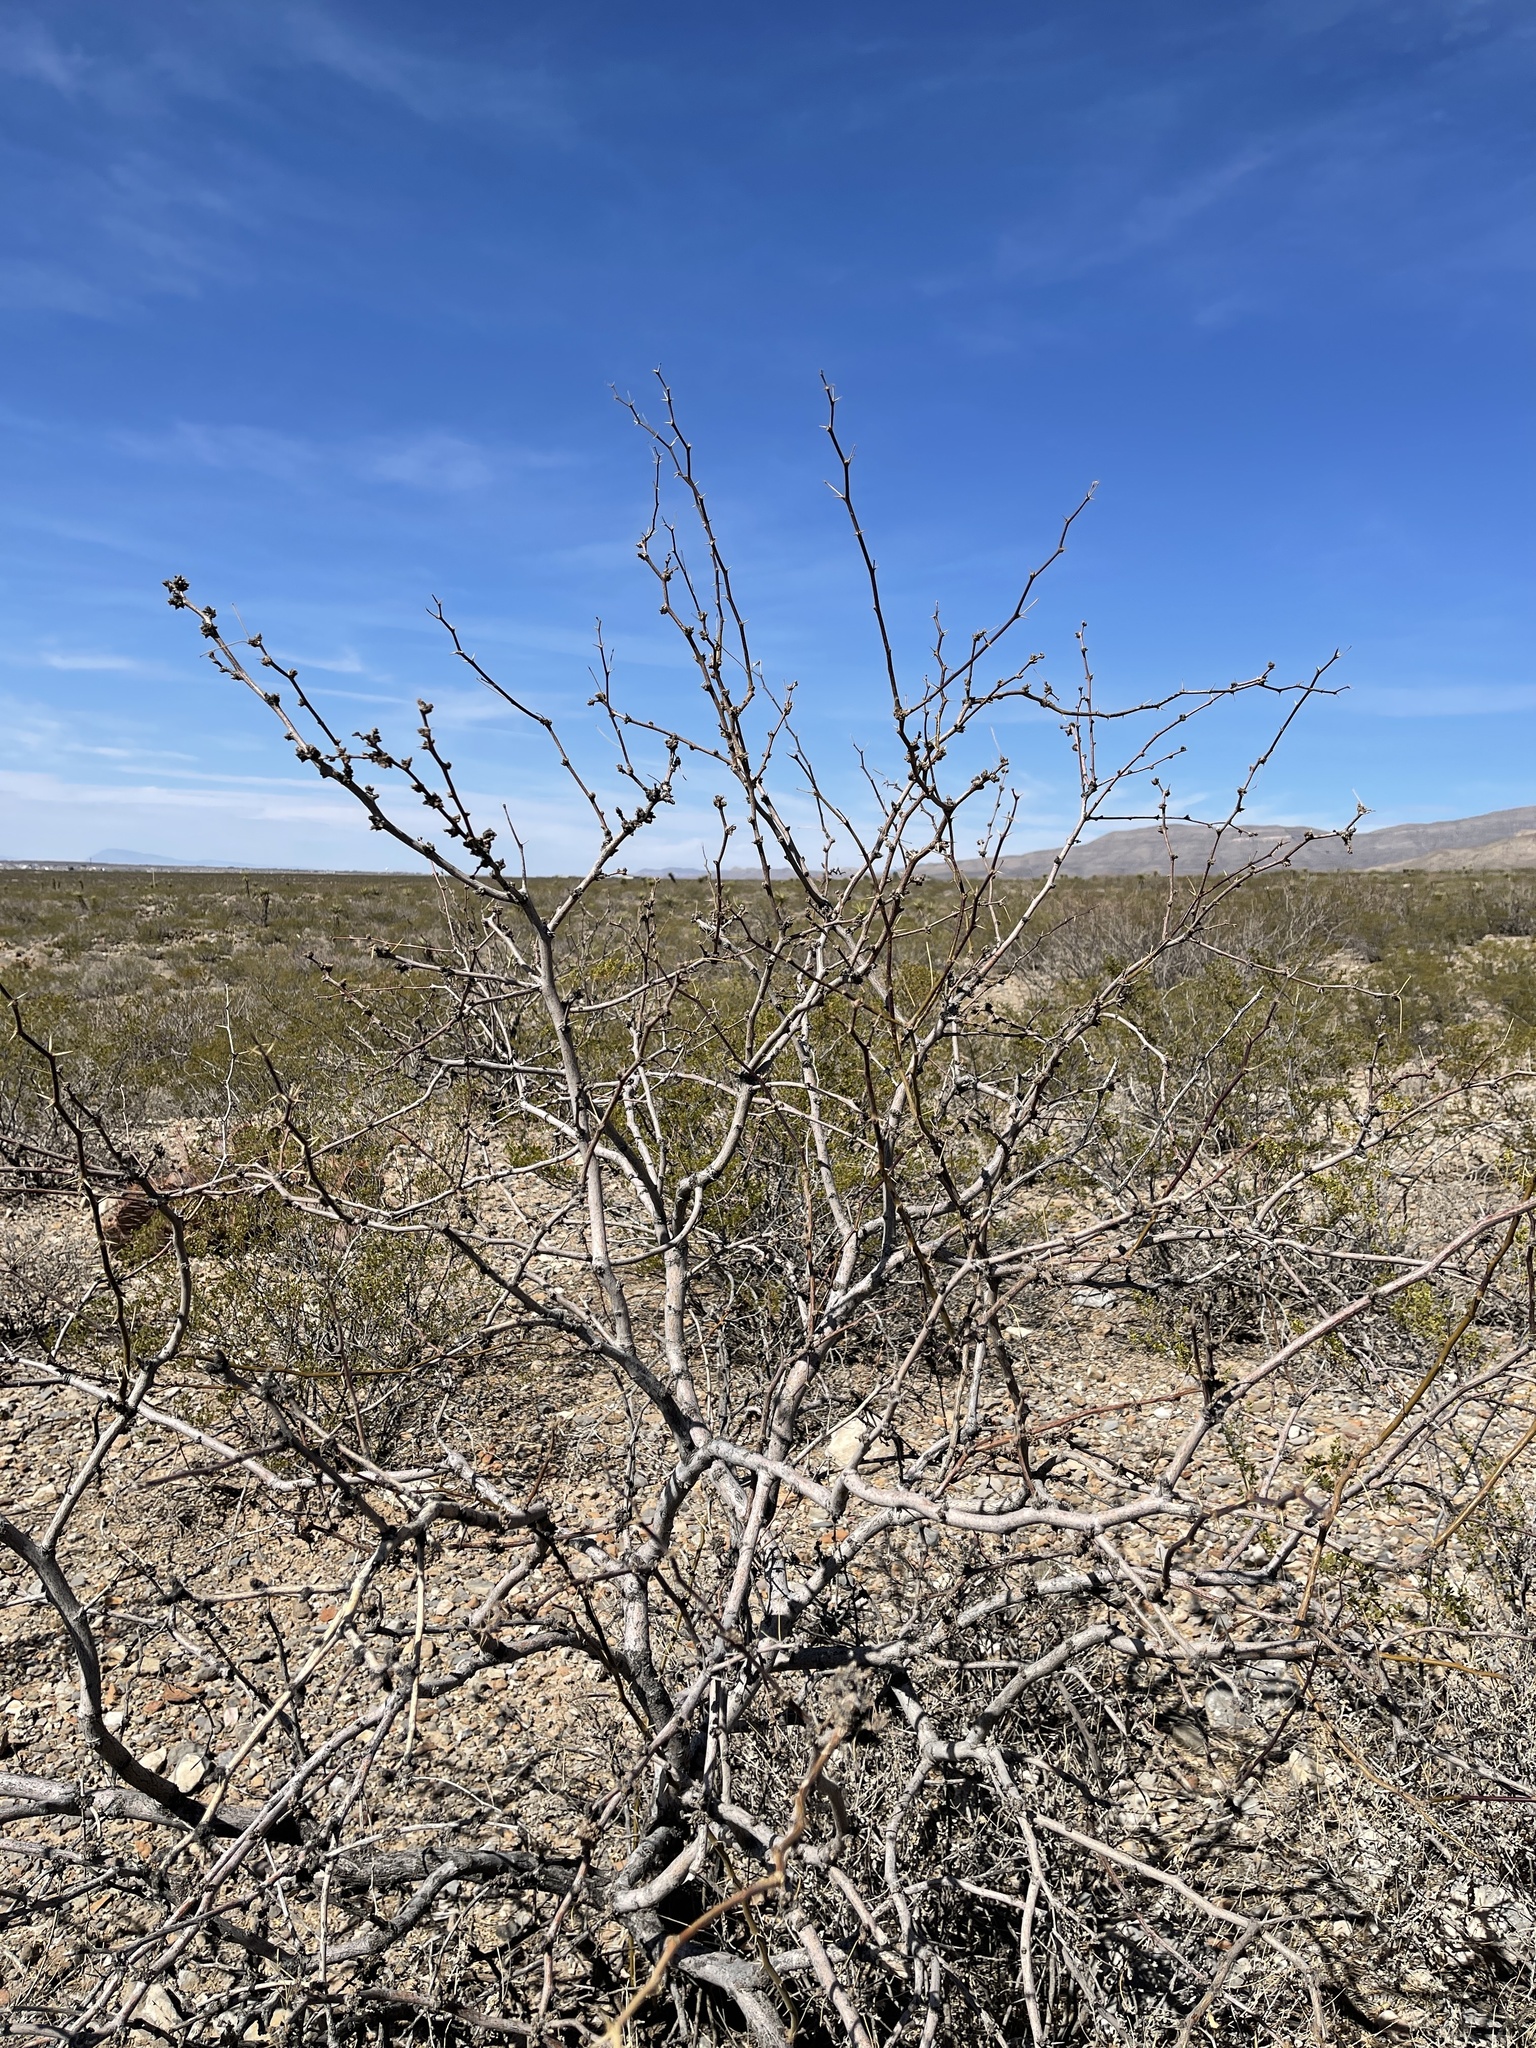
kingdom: Plantae
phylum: Tracheophyta
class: Magnoliopsida
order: Fabales
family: Fabaceae
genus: Prosopis
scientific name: Prosopis glandulosa
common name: Honey mesquite
